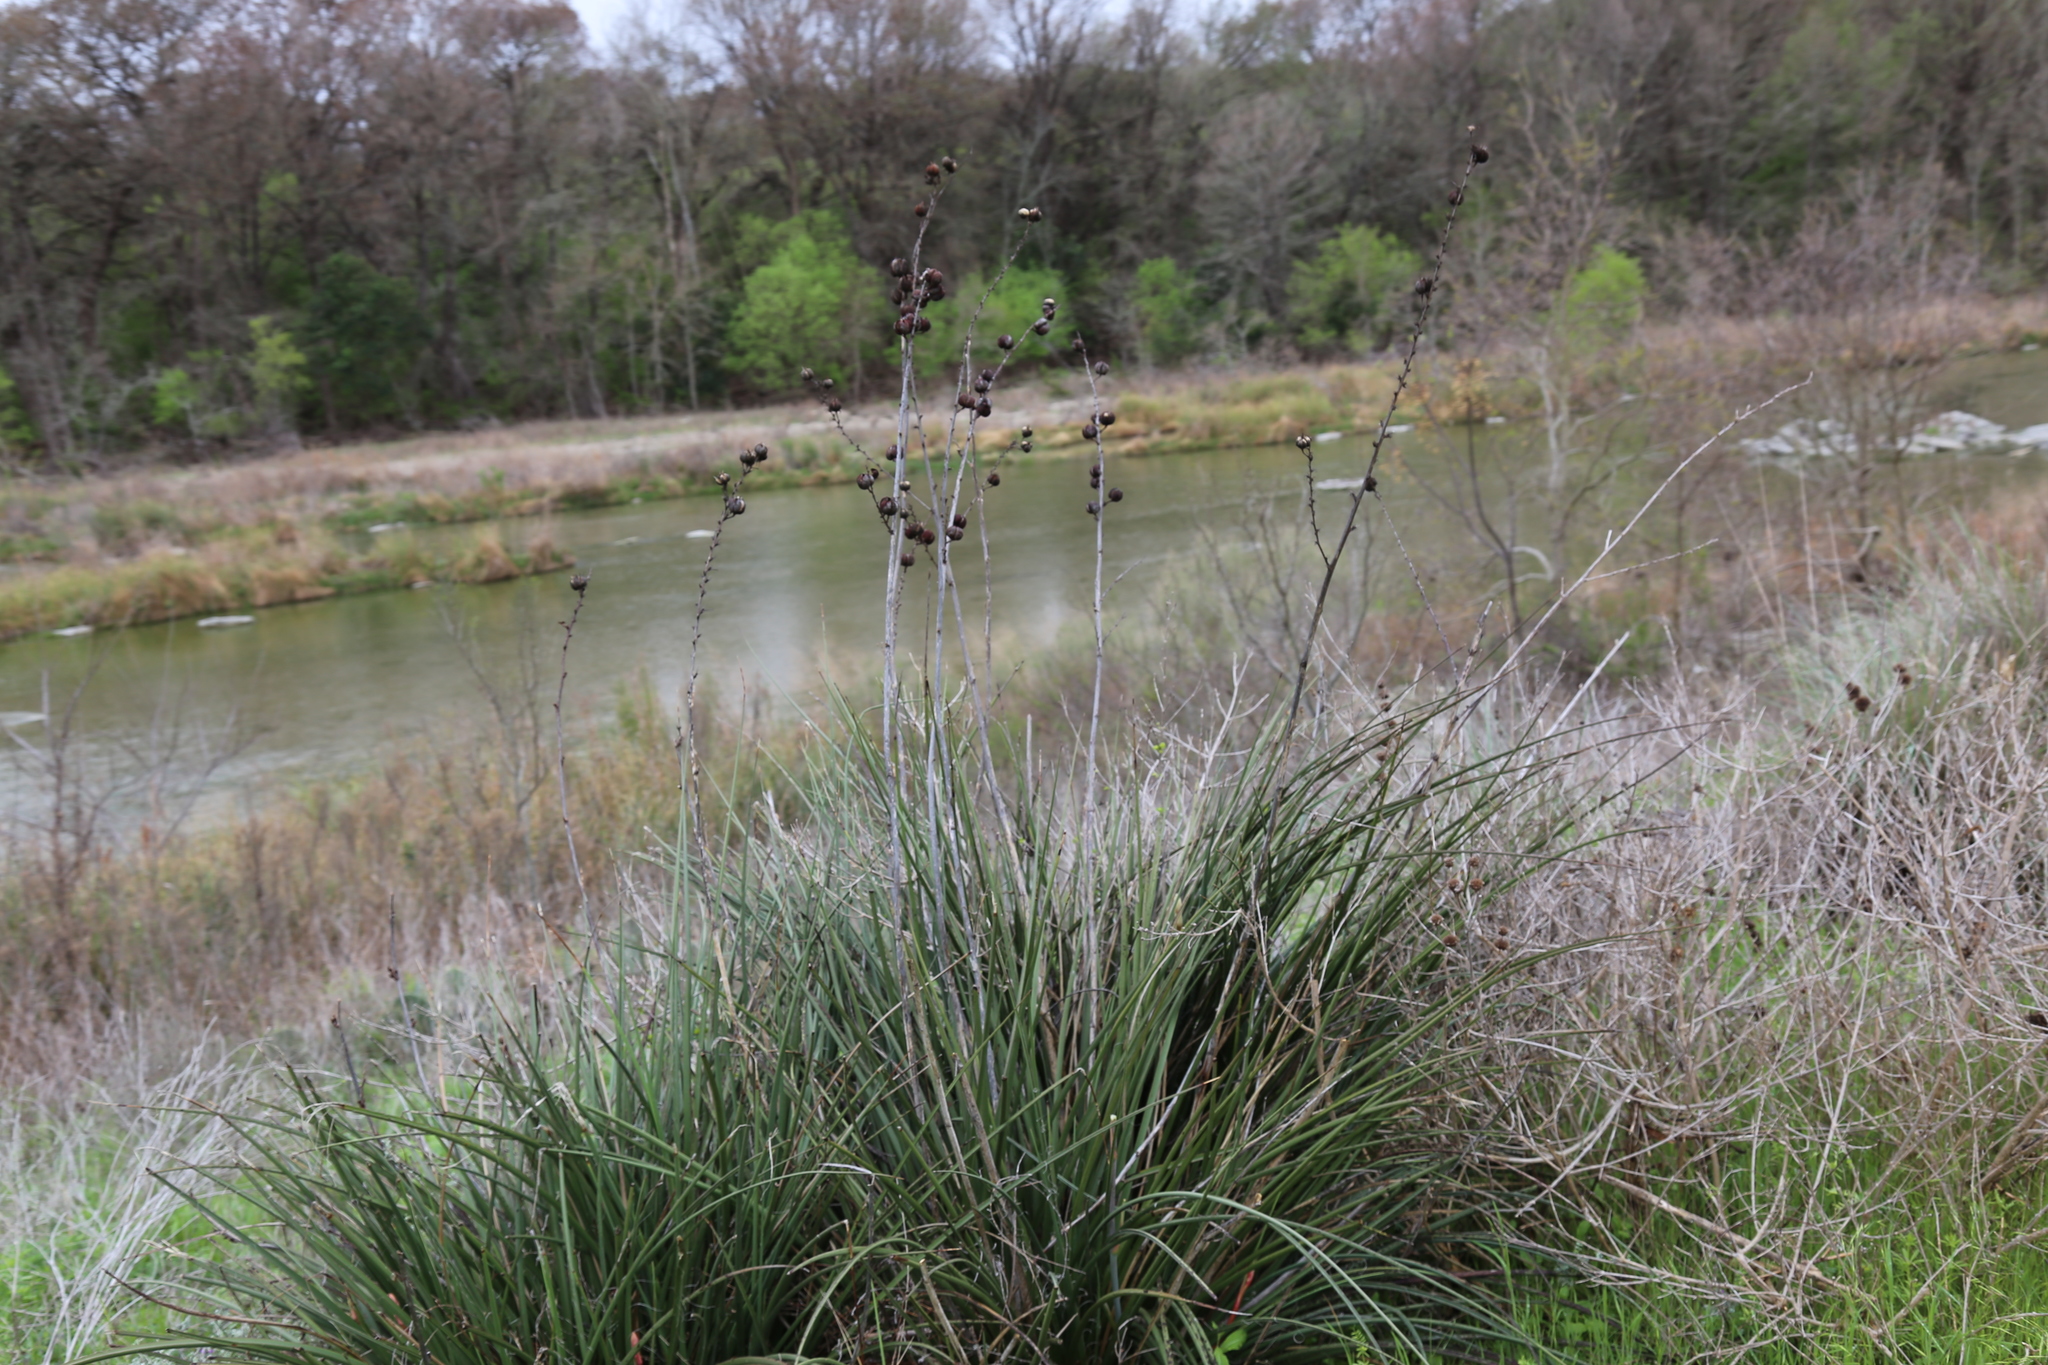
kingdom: Plantae
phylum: Tracheophyta
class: Liliopsida
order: Asparagales
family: Asparagaceae
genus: Hesperaloe
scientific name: Hesperaloe parviflora
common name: Red hesperaloe
